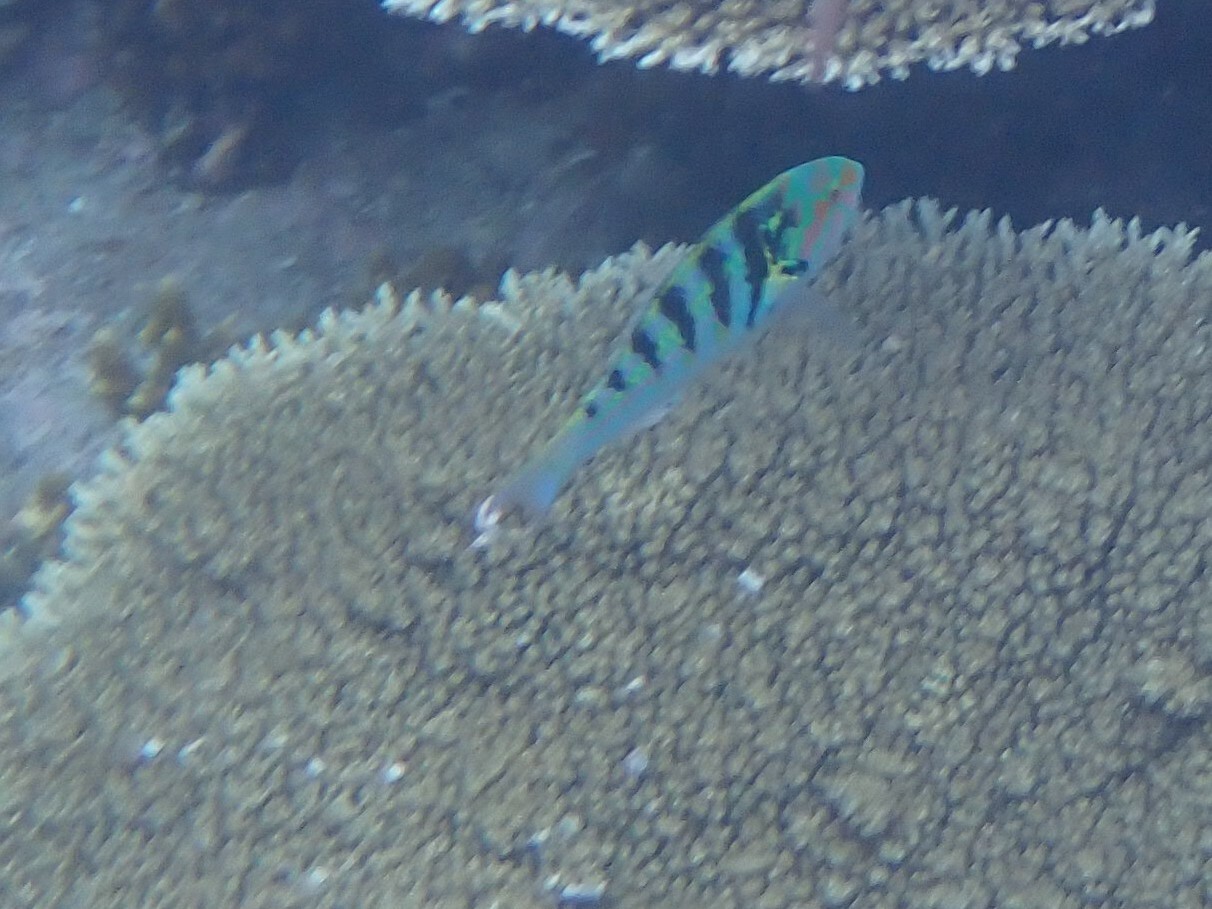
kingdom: Animalia
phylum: Chordata
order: Perciformes
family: Labridae
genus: Thalassoma
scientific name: Thalassoma hardwicke
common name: Sixbar wrasse
